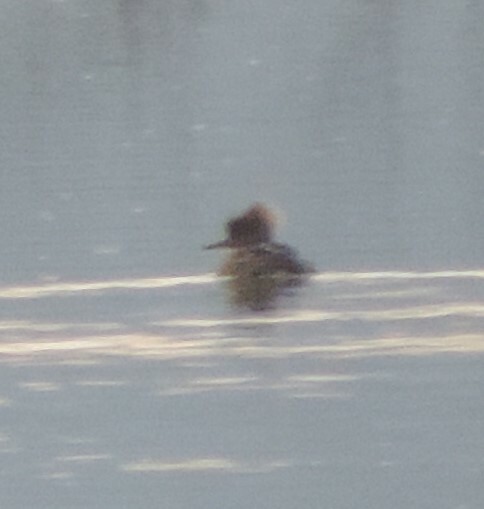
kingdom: Animalia
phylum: Chordata
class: Aves
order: Anseriformes
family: Anatidae
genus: Lophodytes
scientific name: Lophodytes cucullatus
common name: Hooded merganser
